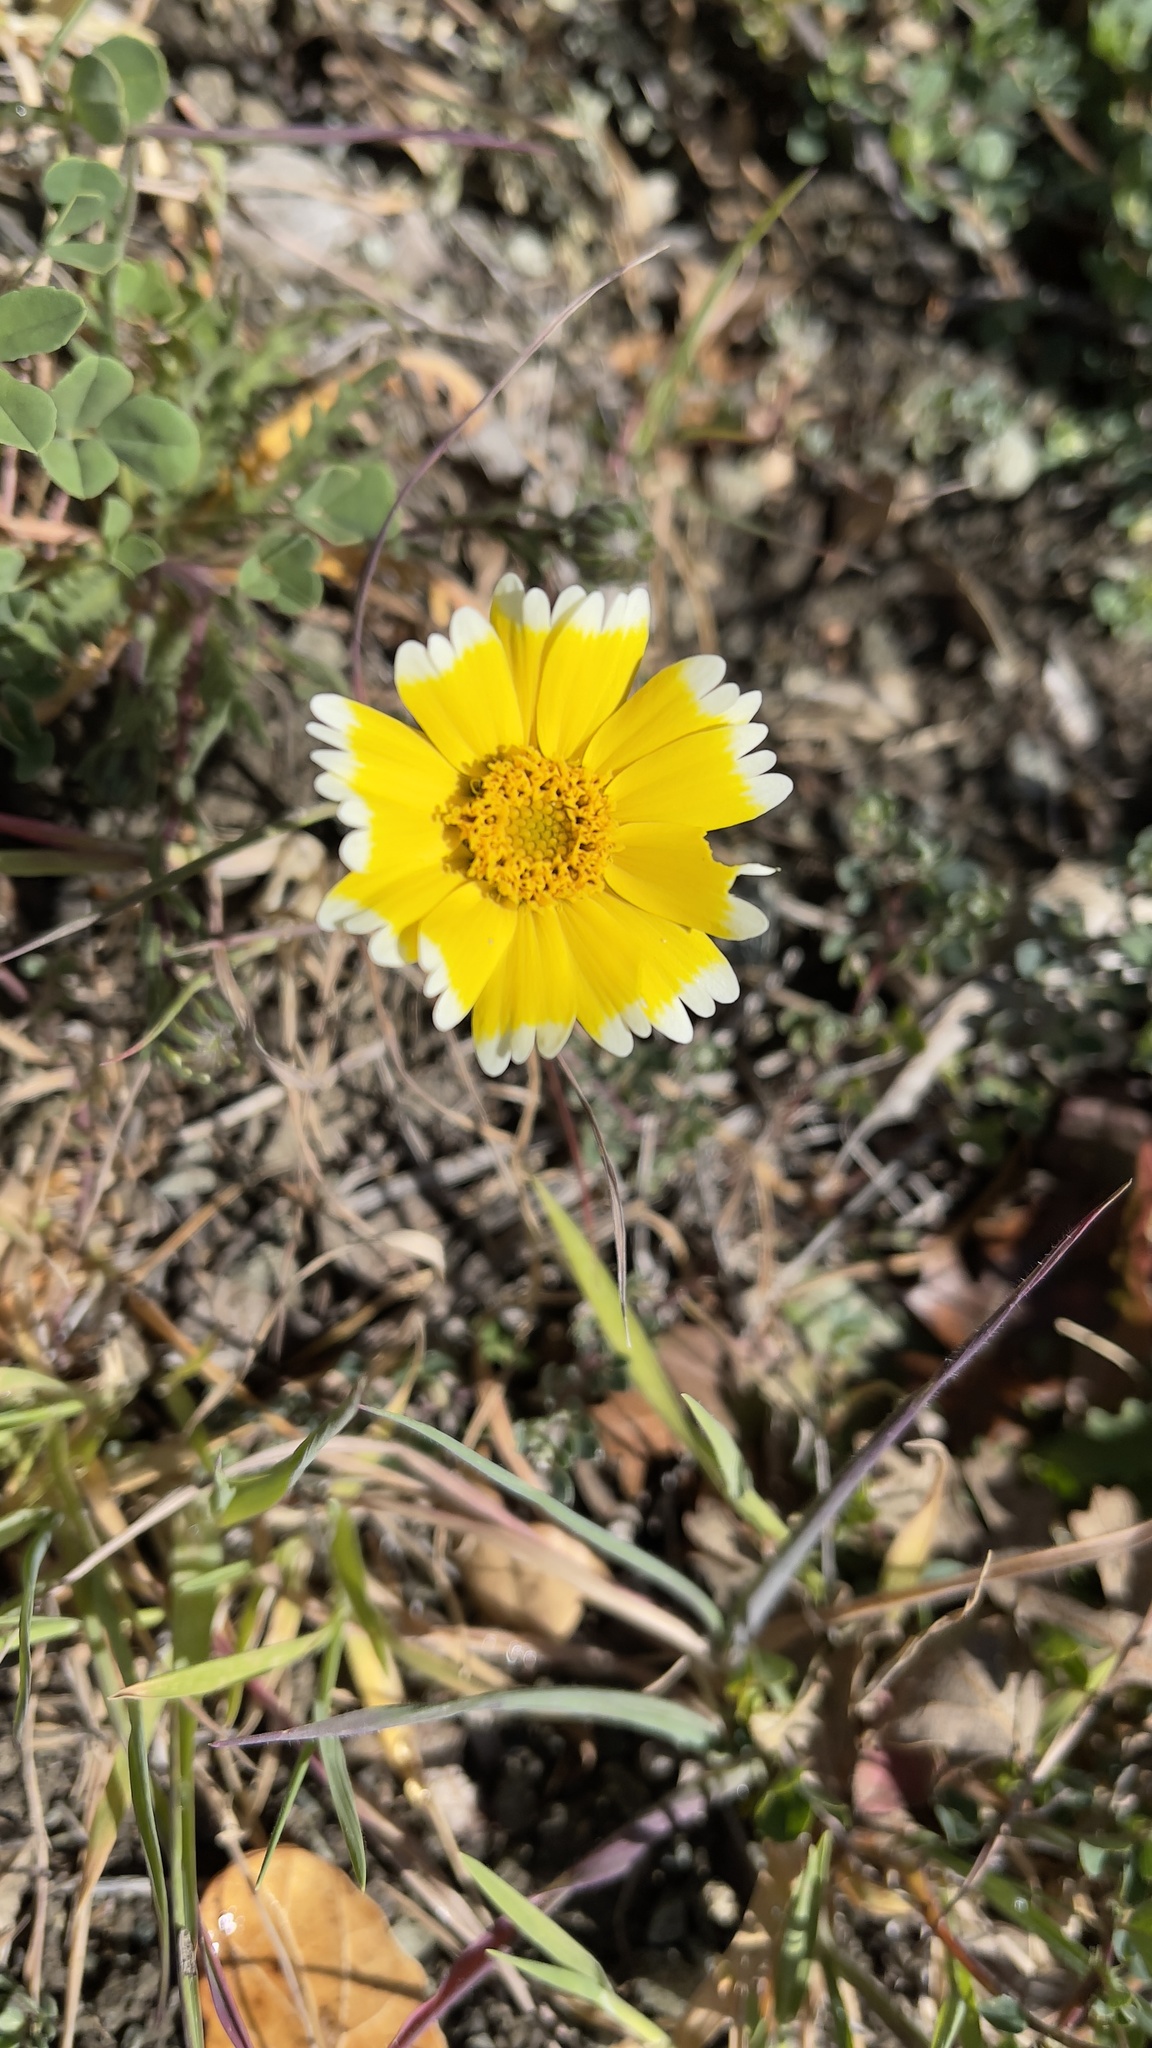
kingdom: Plantae
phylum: Tracheophyta
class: Magnoliopsida
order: Asterales
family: Asteraceae
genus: Layia
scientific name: Layia platyglossa
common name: Tidy-tips
